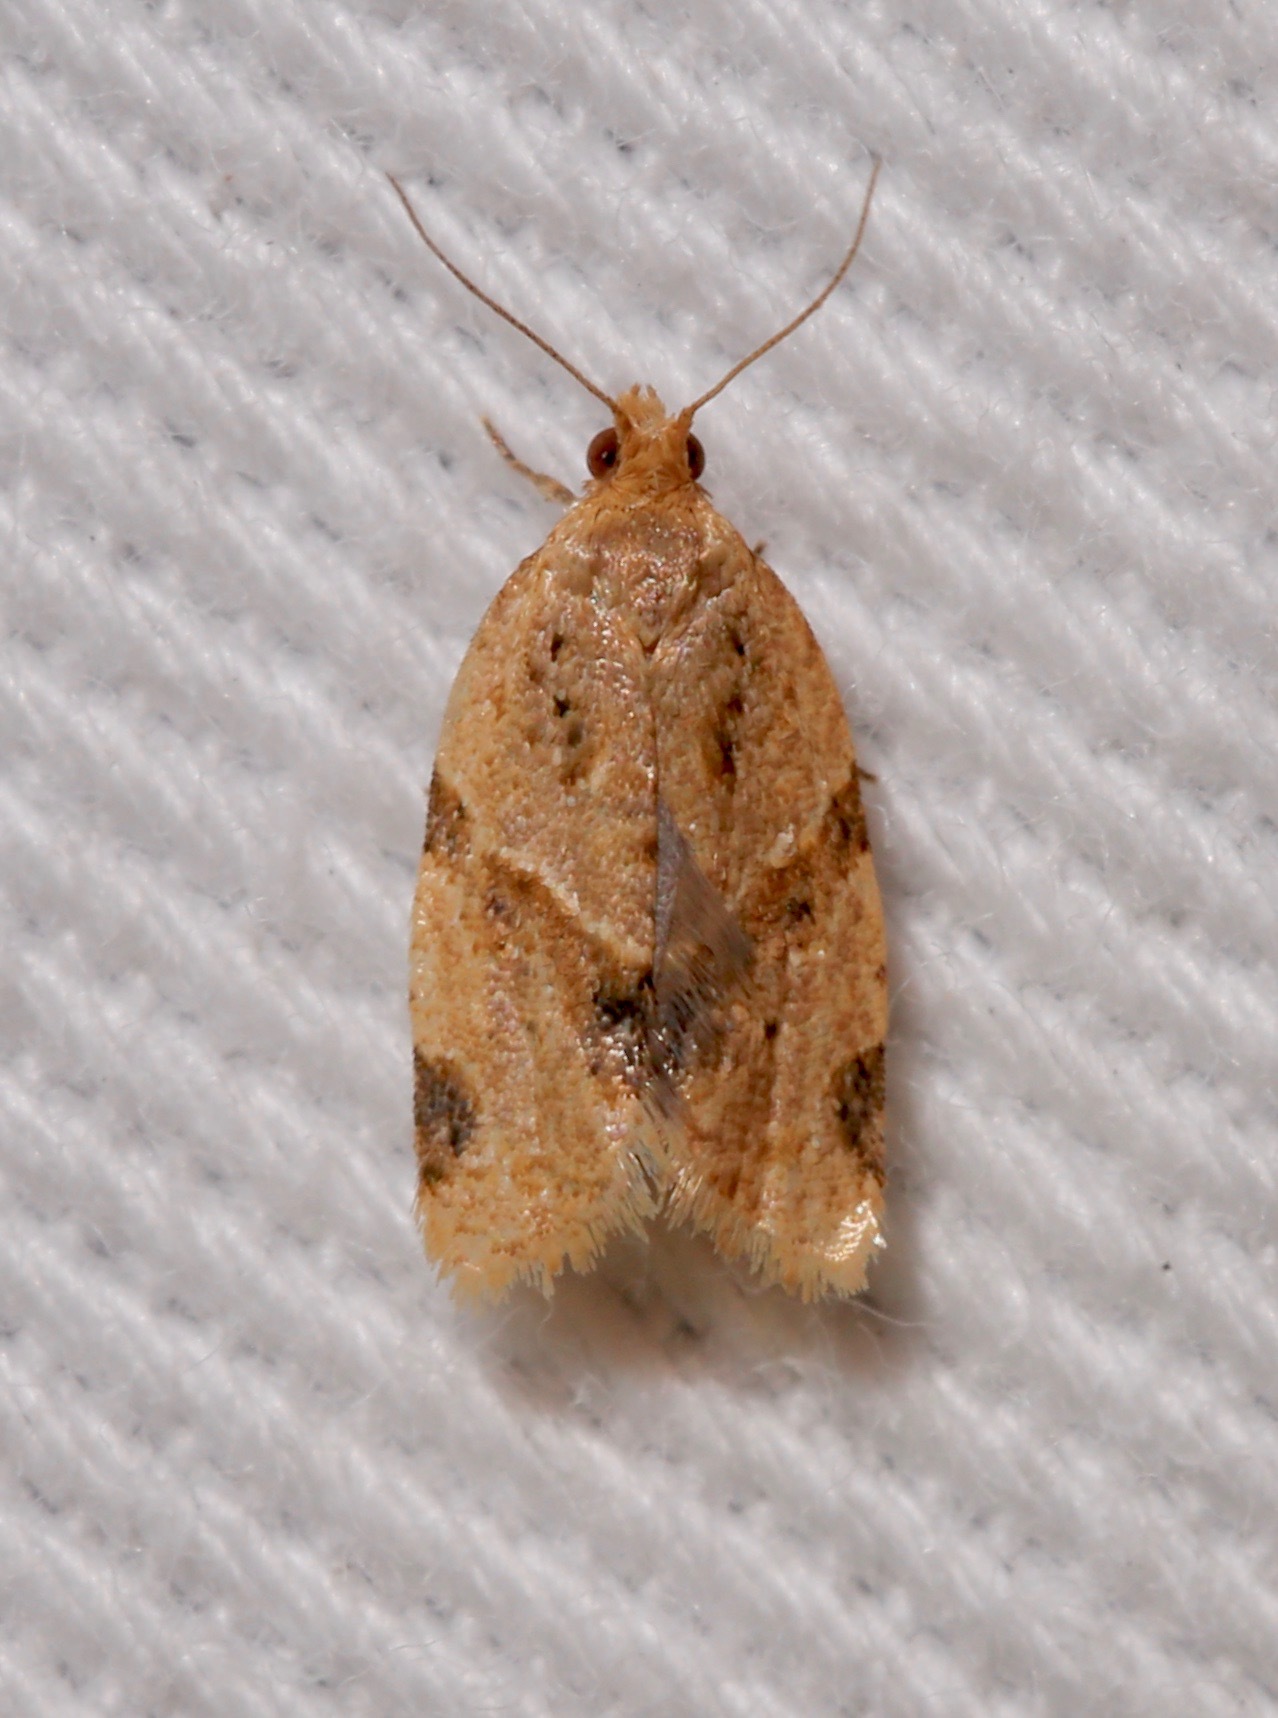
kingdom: Animalia
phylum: Arthropoda
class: Insecta
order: Lepidoptera
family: Tortricidae
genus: Clepsis
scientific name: Clepsis peritana
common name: Garden tortrix
